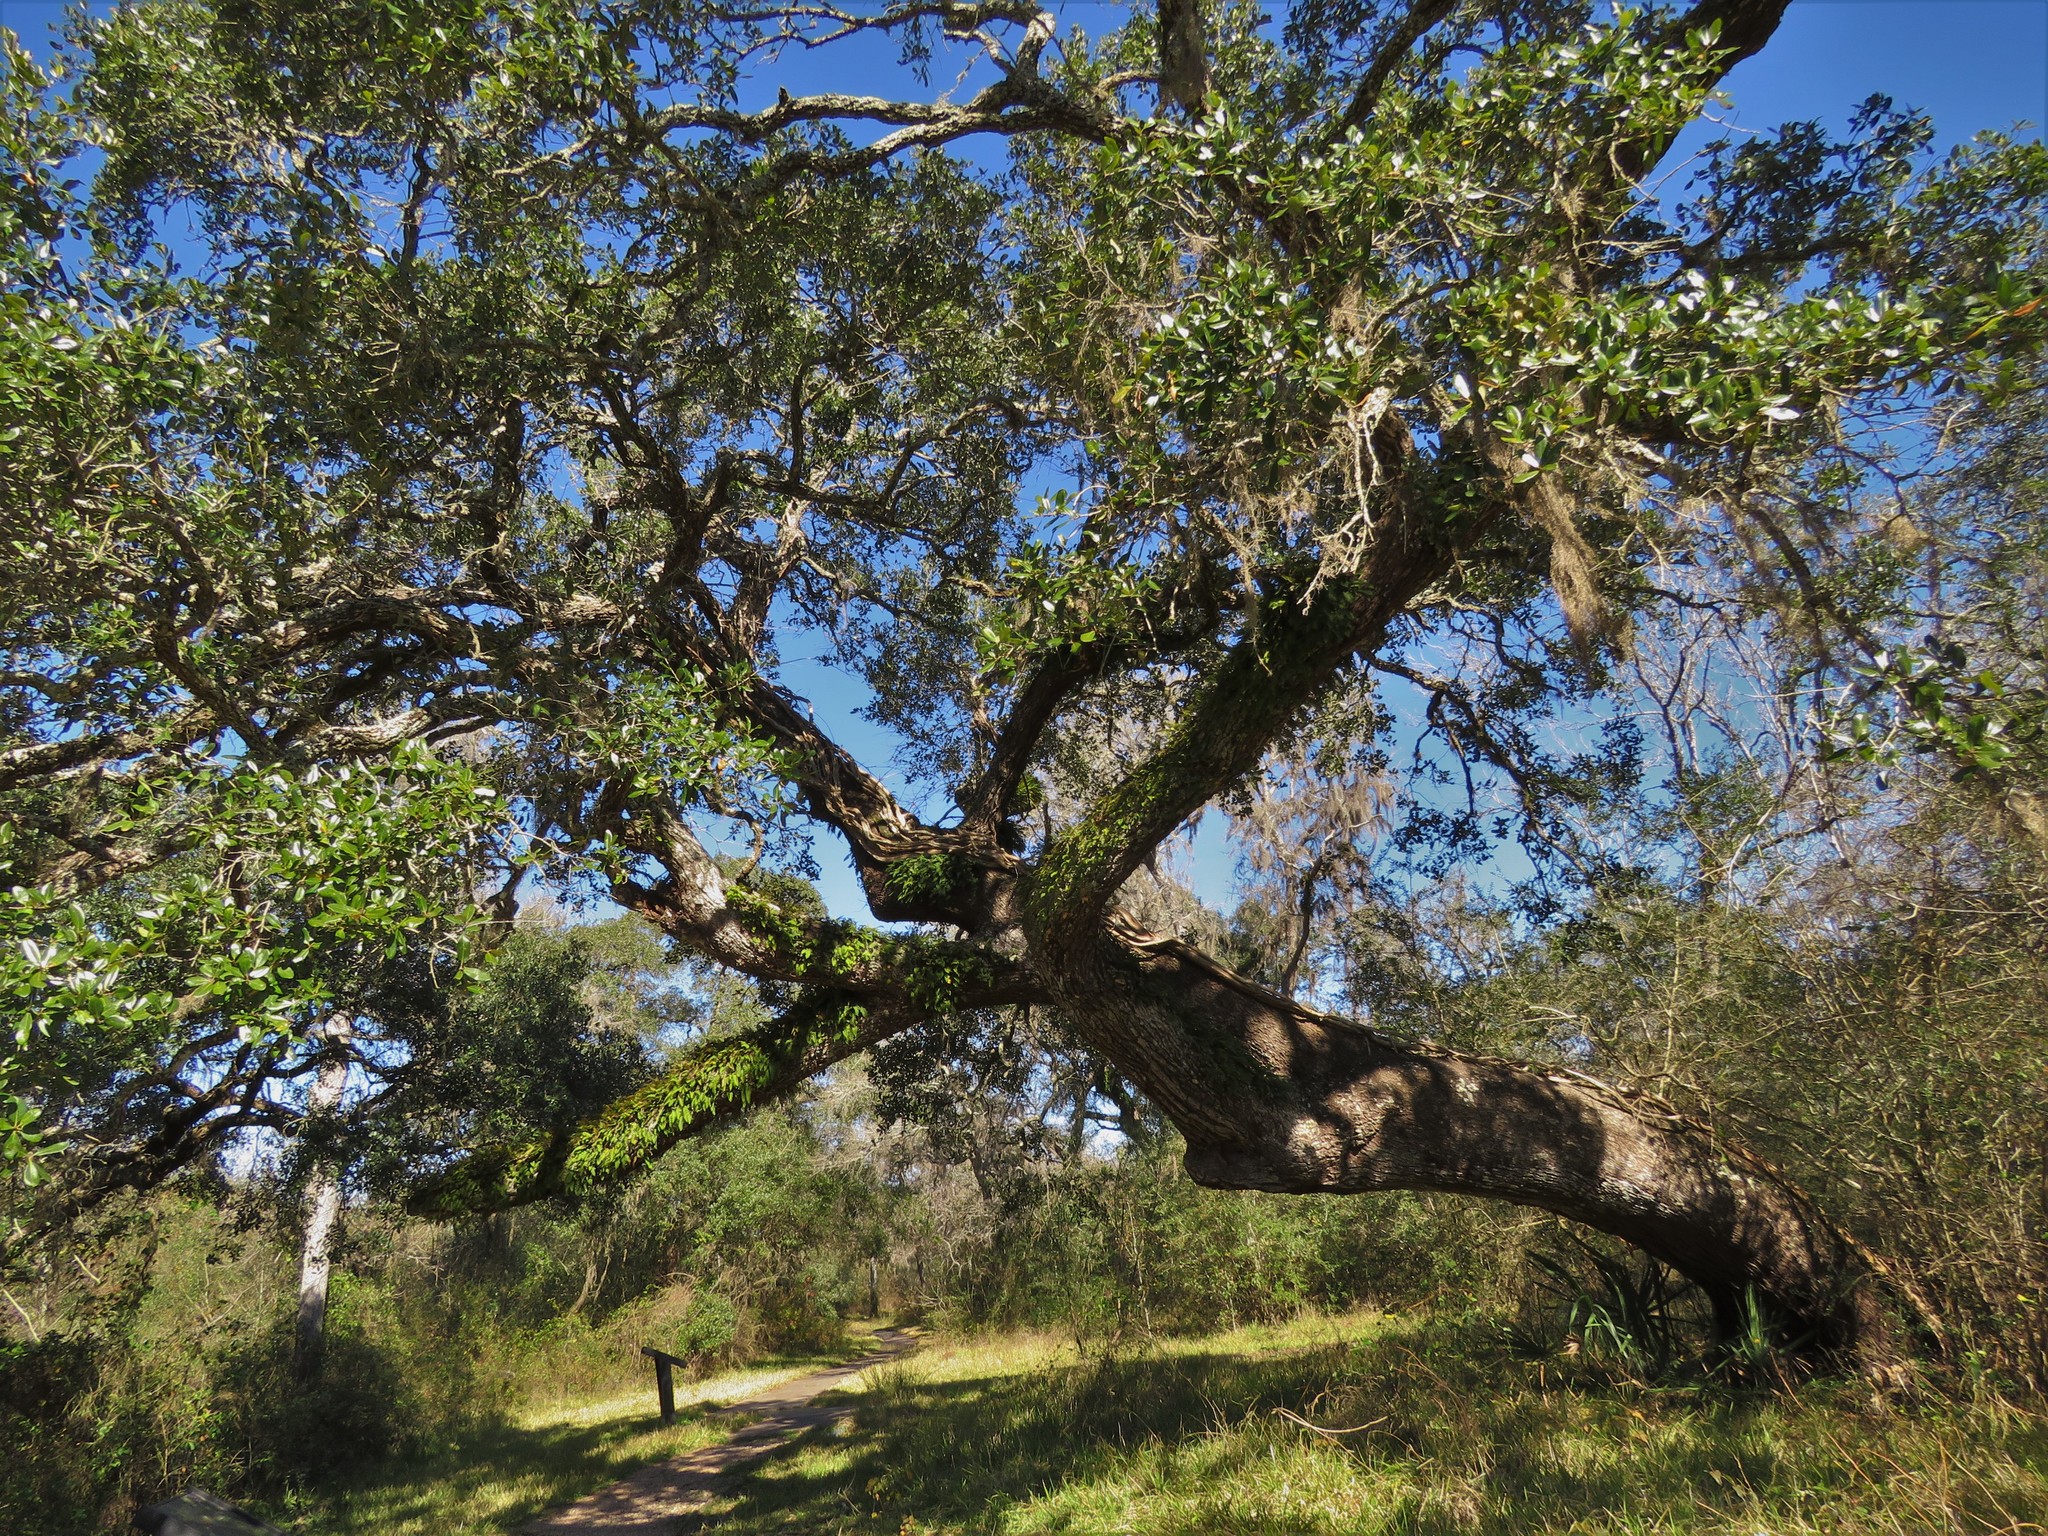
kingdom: Plantae
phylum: Tracheophyta
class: Magnoliopsida
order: Fagales
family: Fagaceae
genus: Quercus
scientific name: Quercus virginiana
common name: Southern live oak
